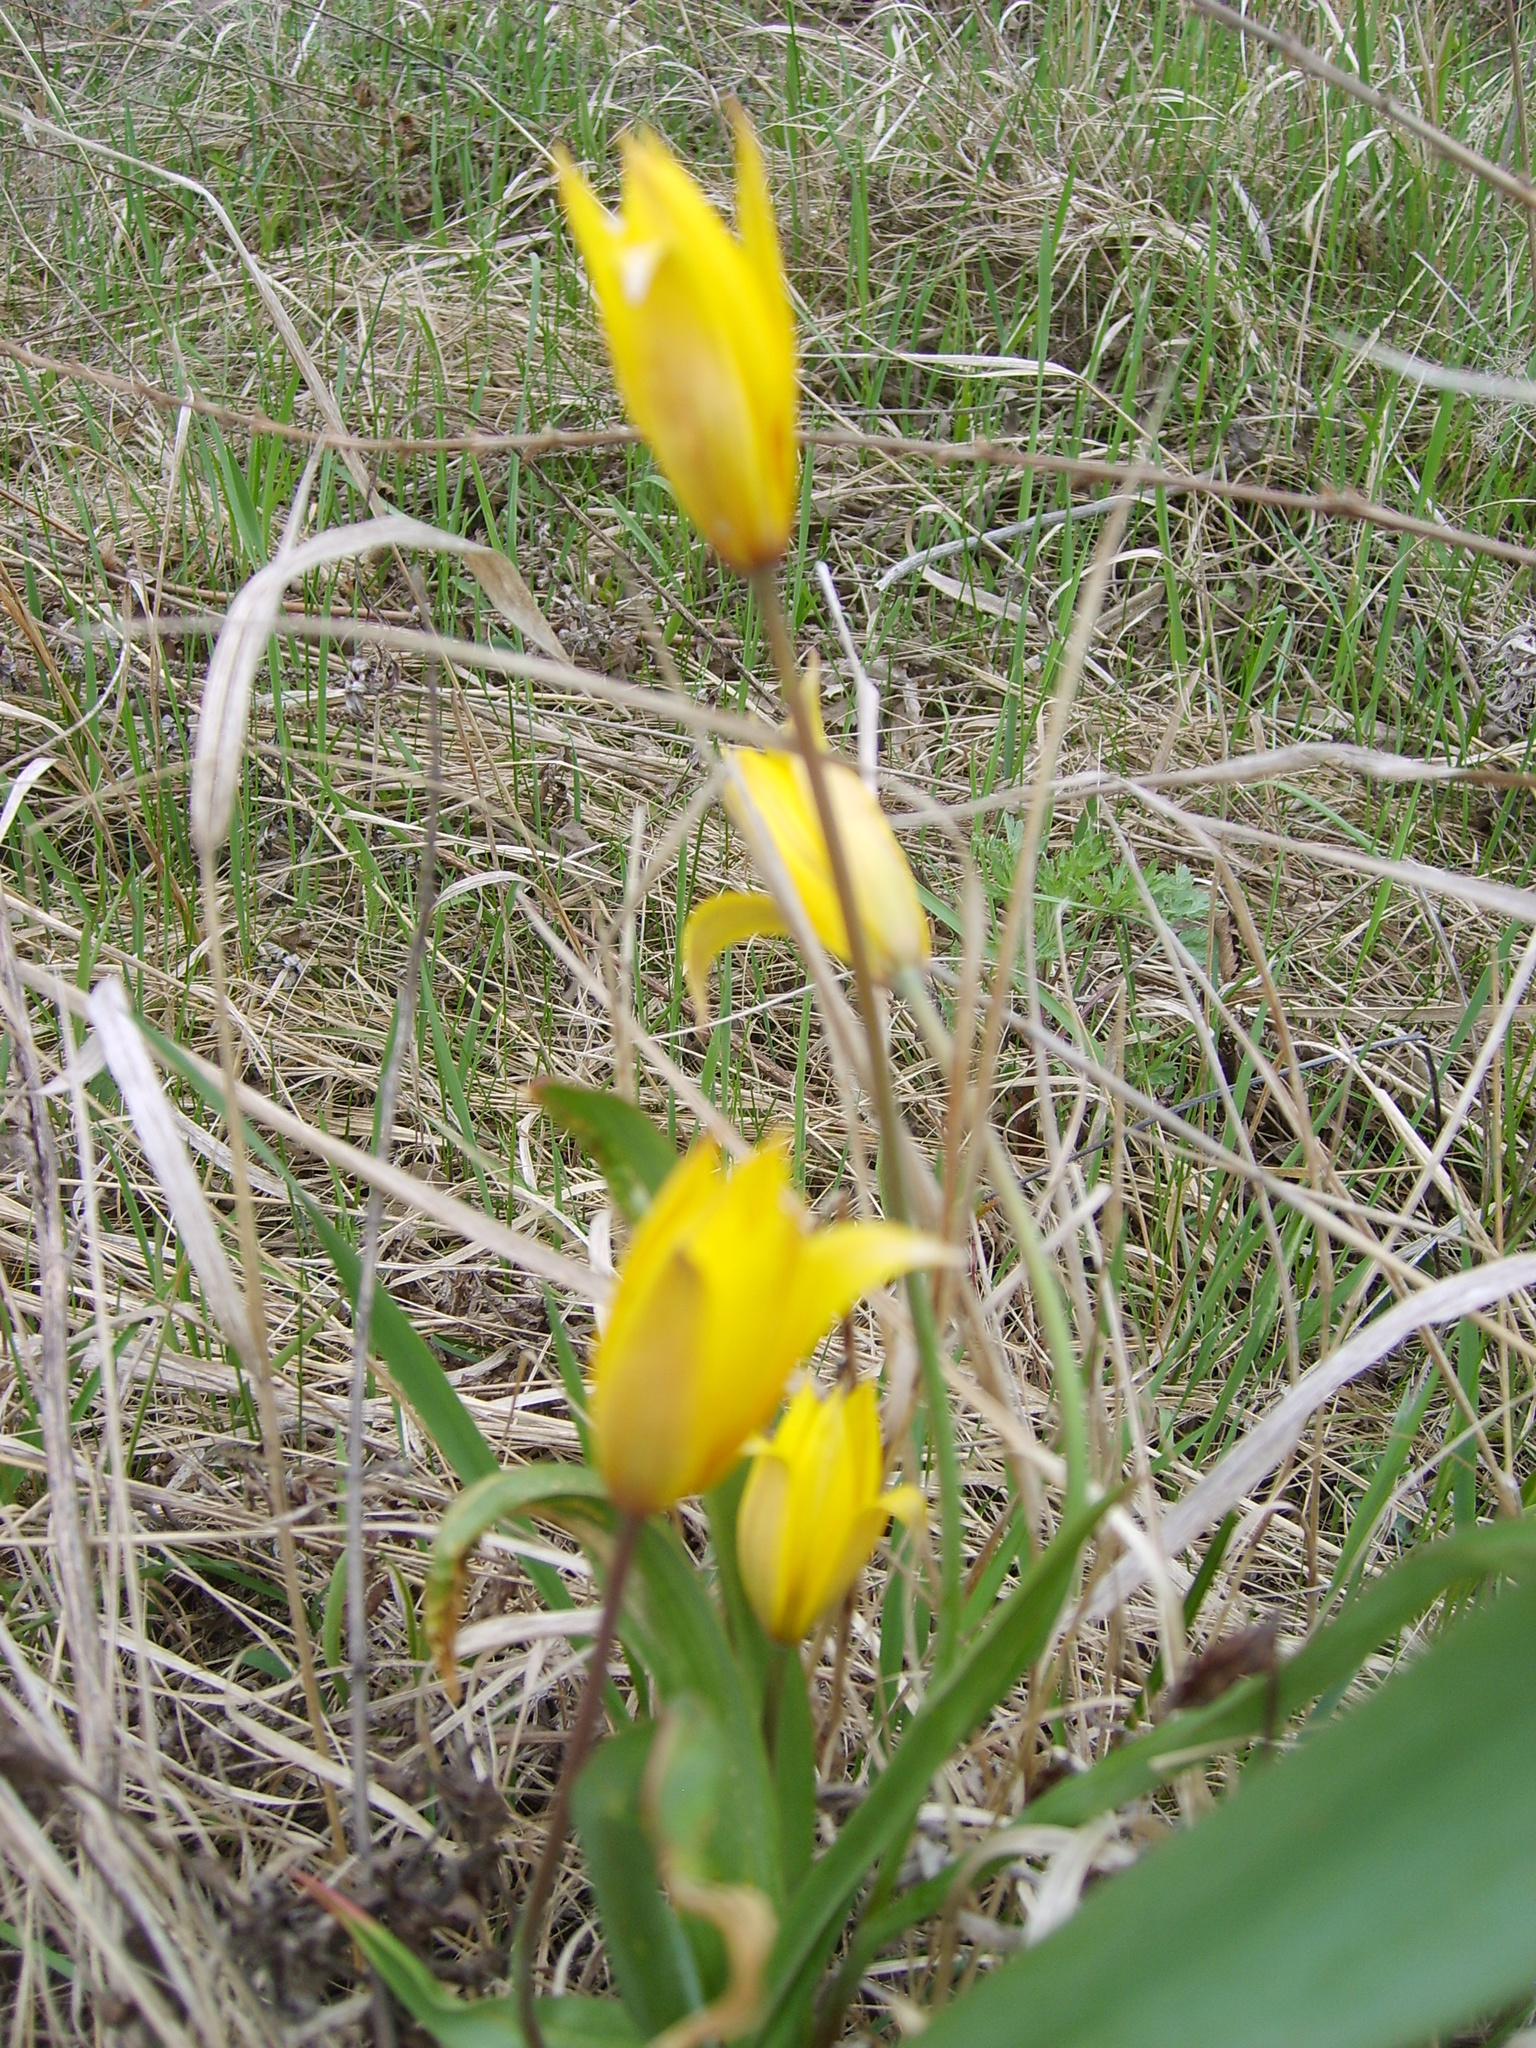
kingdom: Plantae
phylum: Tracheophyta
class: Liliopsida
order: Liliales
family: Liliaceae
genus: Tulipa
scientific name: Tulipa sylvestris
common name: Wild tulip
